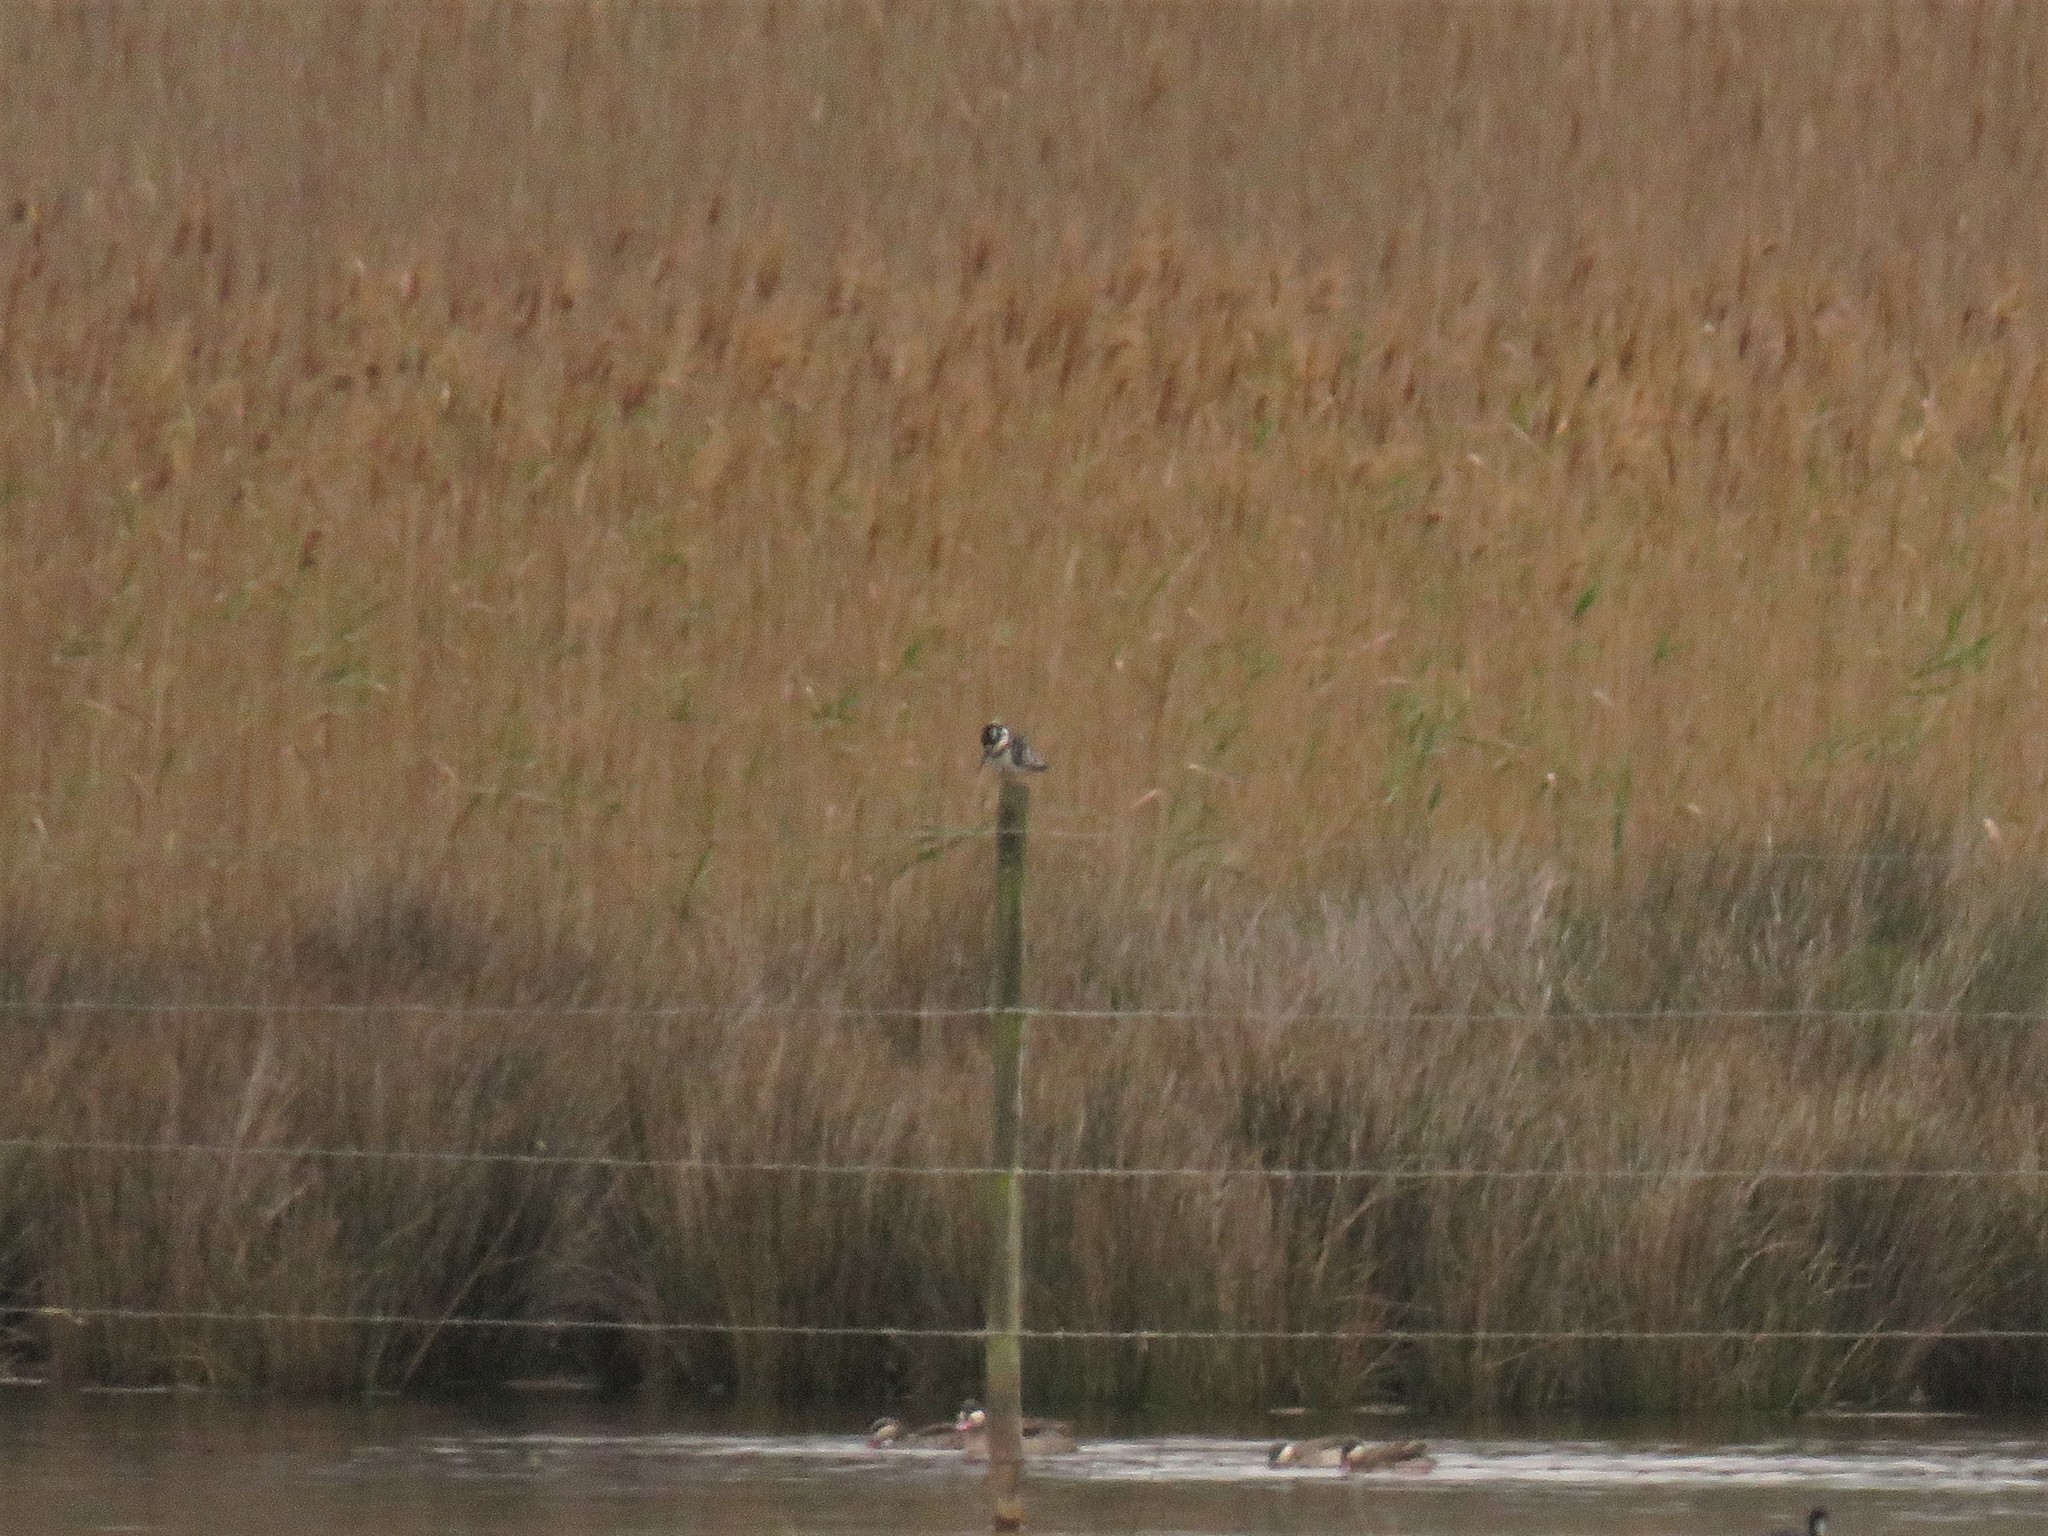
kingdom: Animalia
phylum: Chordata
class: Aves
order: Coraciiformes
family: Alcedinidae
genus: Ceryle
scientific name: Ceryle rudis
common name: Pied kingfisher
